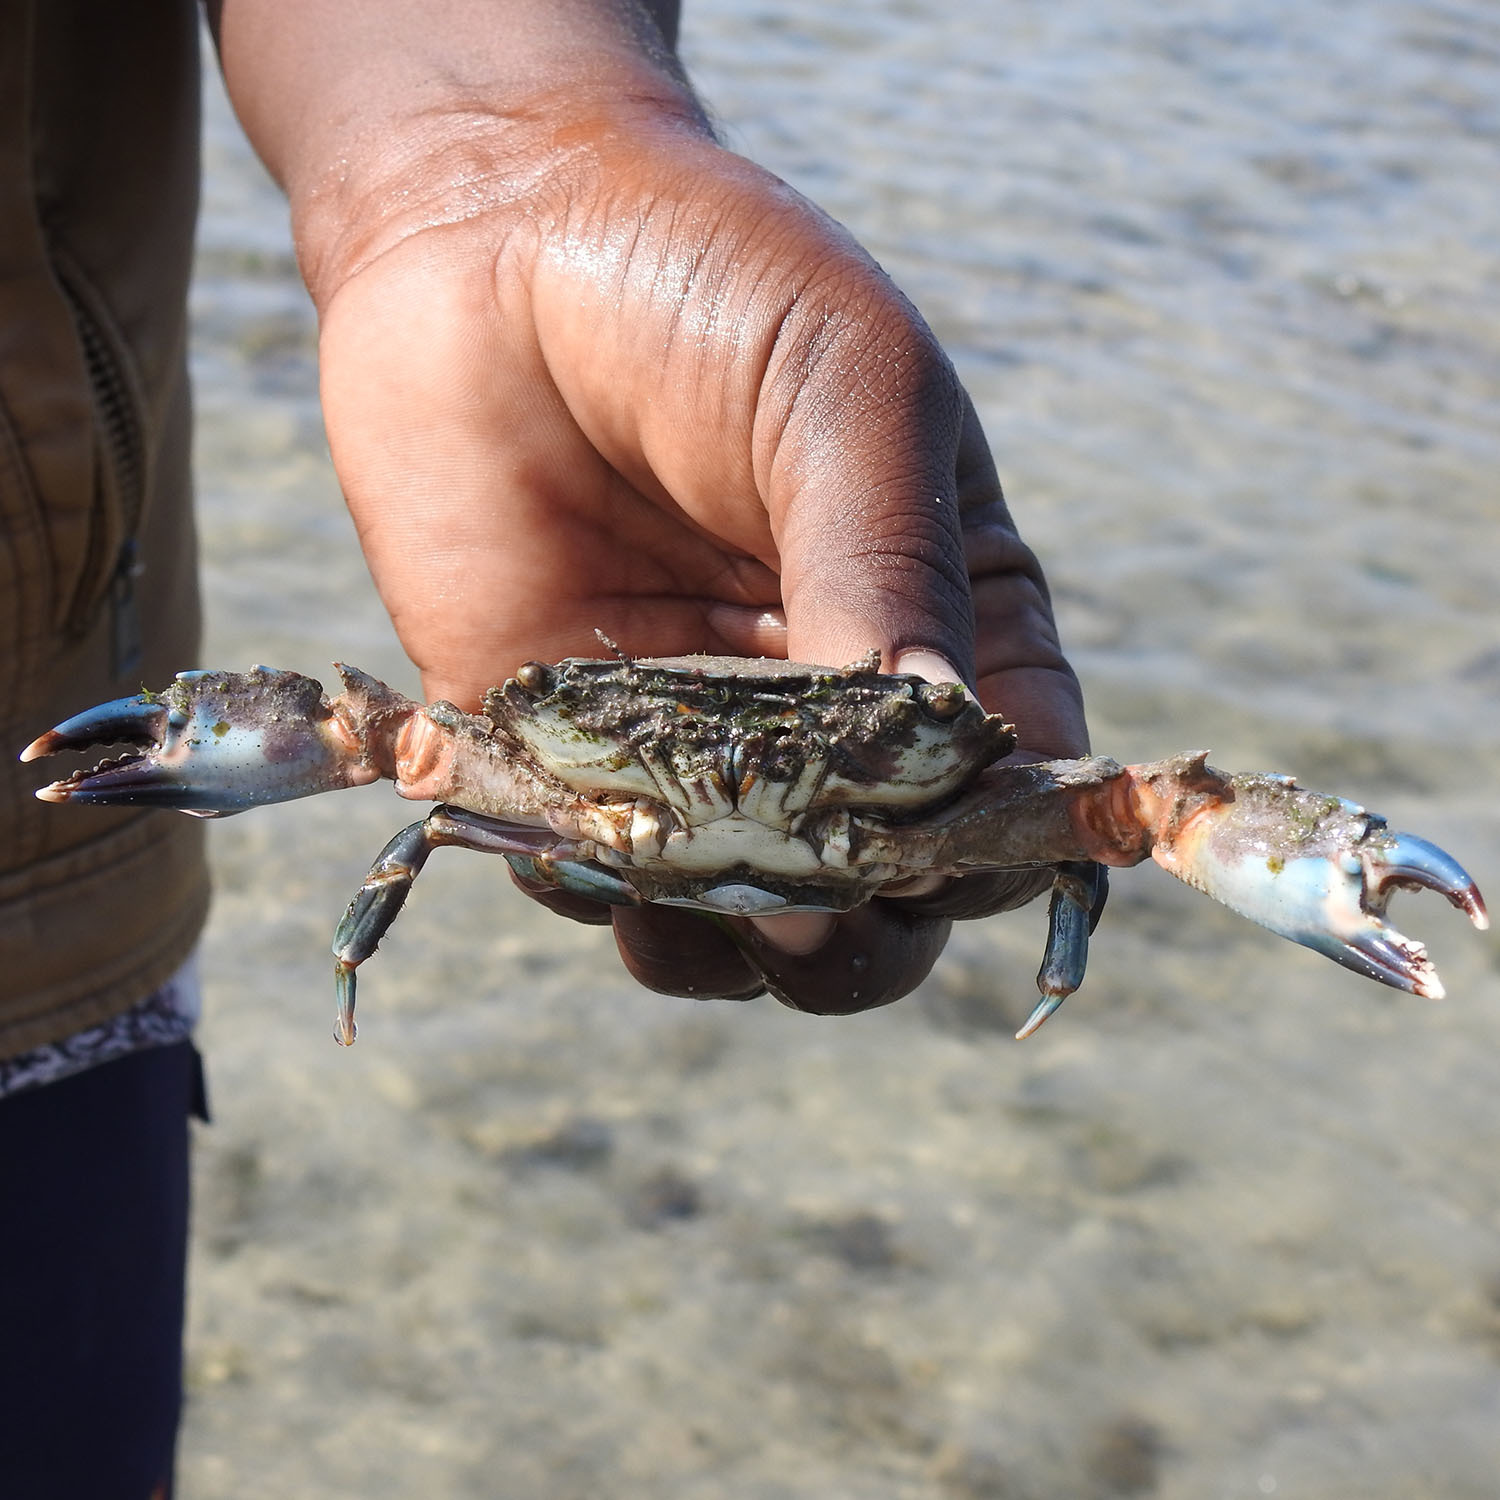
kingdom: Animalia
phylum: Arthropoda
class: Malacostraca
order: Decapoda
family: Portunidae
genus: Thalamita
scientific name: Thalamita crenata
